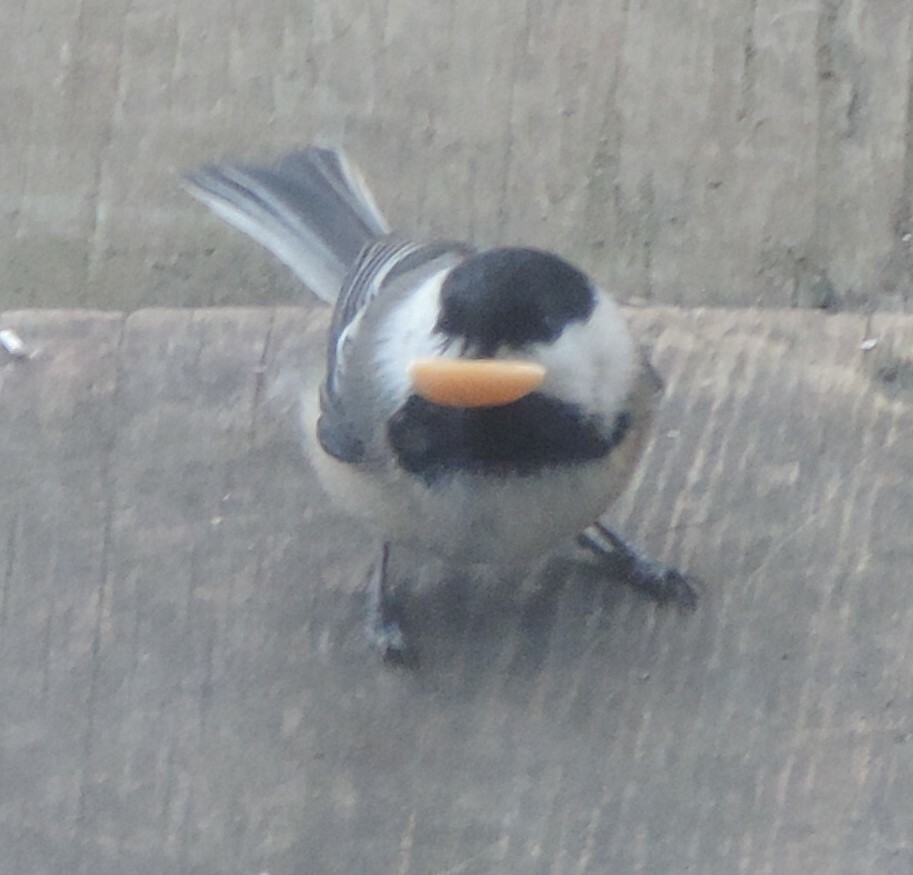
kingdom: Animalia
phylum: Chordata
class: Aves
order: Passeriformes
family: Paridae
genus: Poecile
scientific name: Poecile atricapillus
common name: Black-capped chickadee
